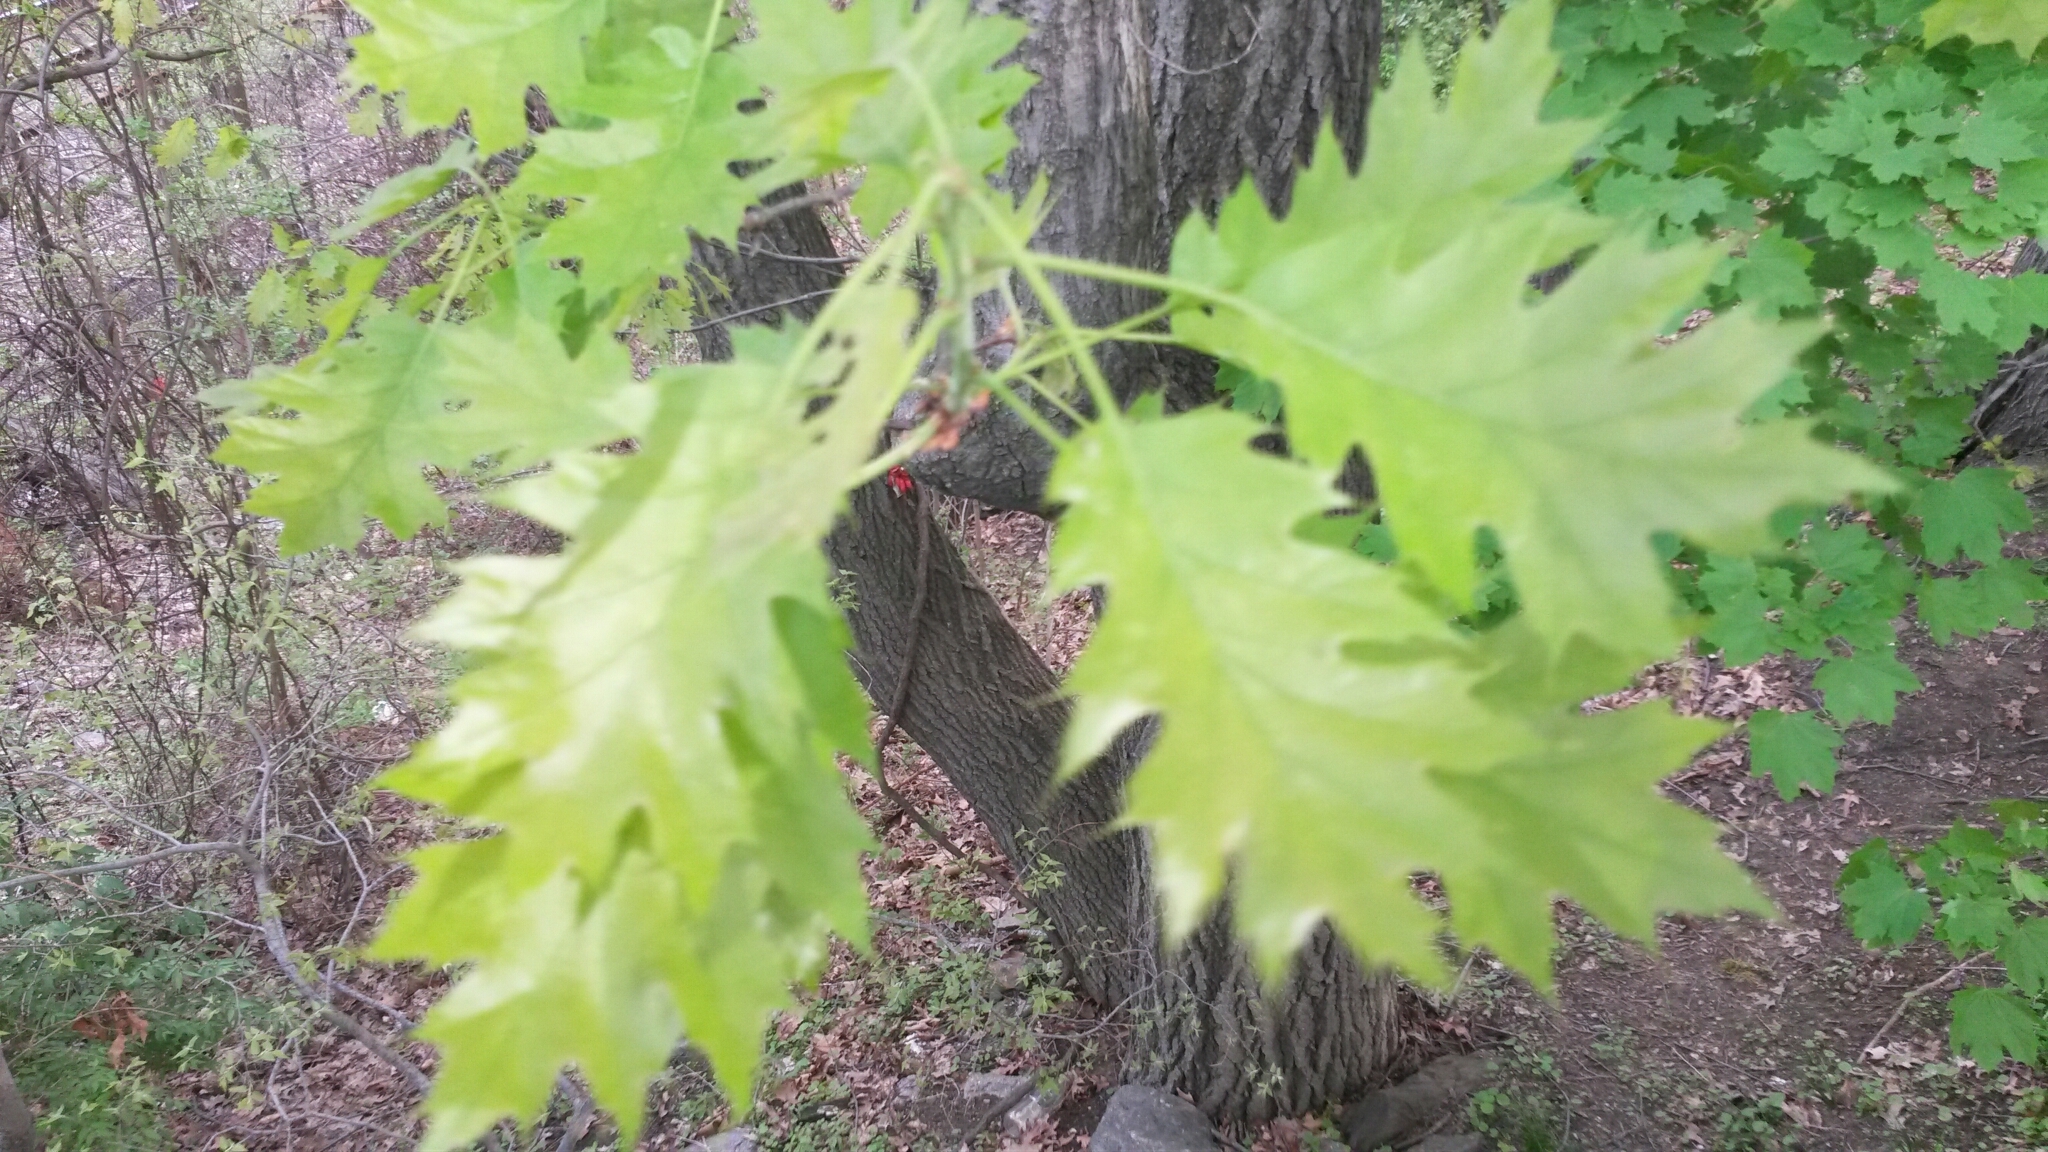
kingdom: Plantae
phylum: Tracheophyta
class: Magnoliopsida
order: Fagales
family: Fagaceae
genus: Quercus
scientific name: Quercus rubra
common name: Red oak
